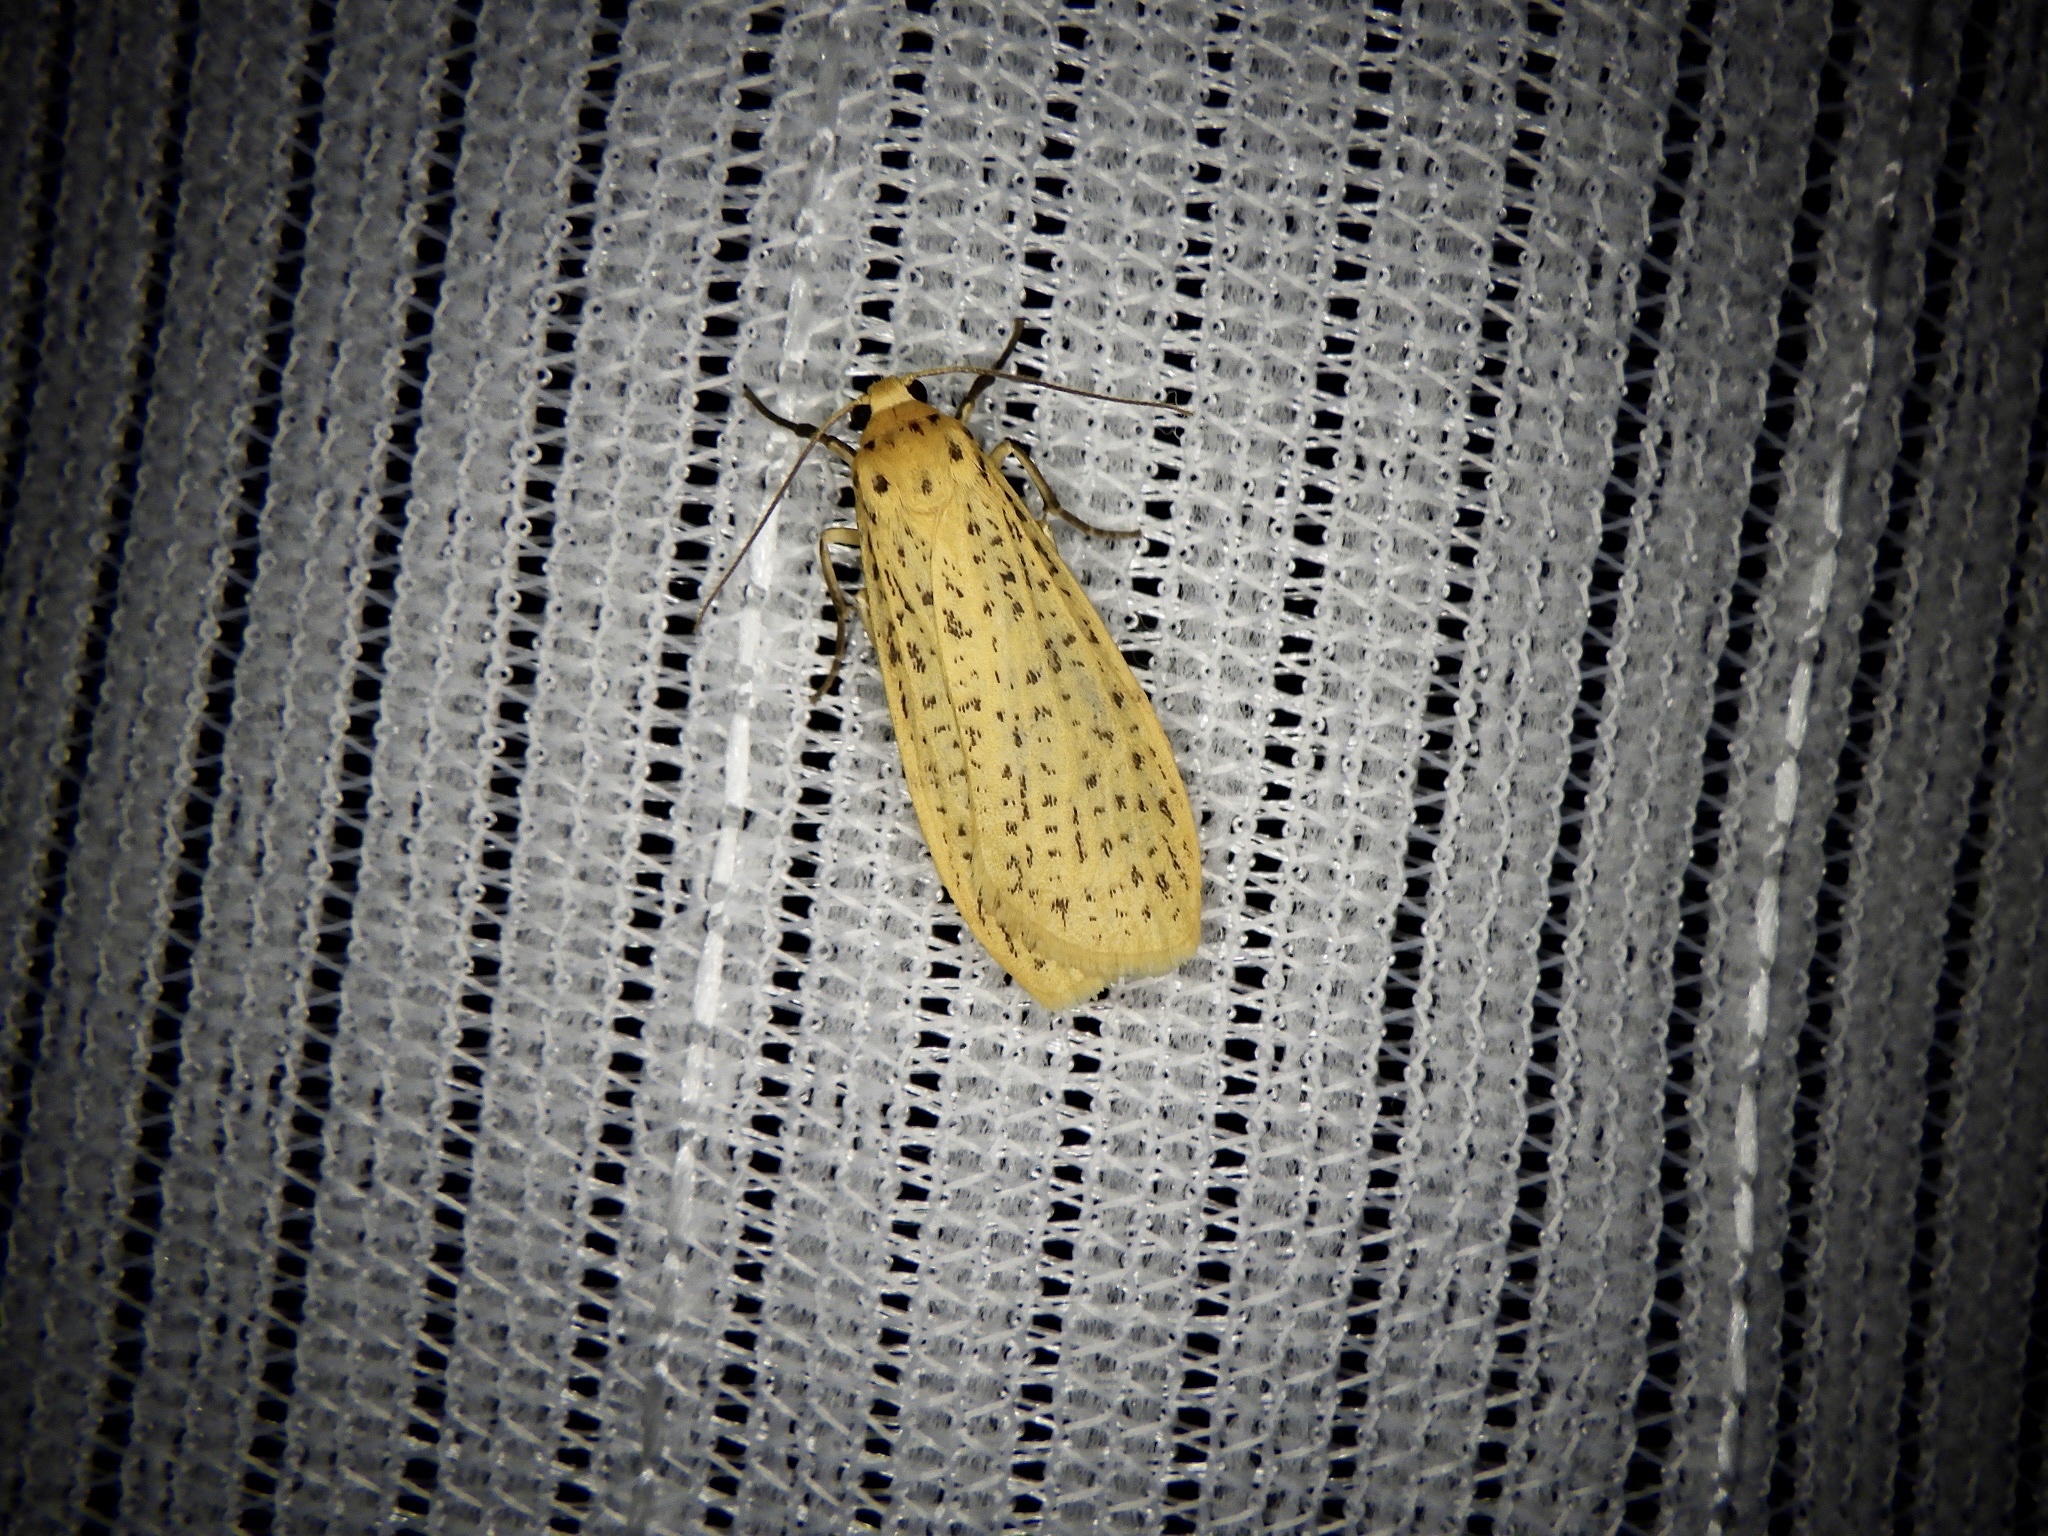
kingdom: Animalia
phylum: Arthropoda
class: Insecta
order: Lepidoptera
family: Erebidae
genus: Dolgoma
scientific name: Dolgoma cribrata
